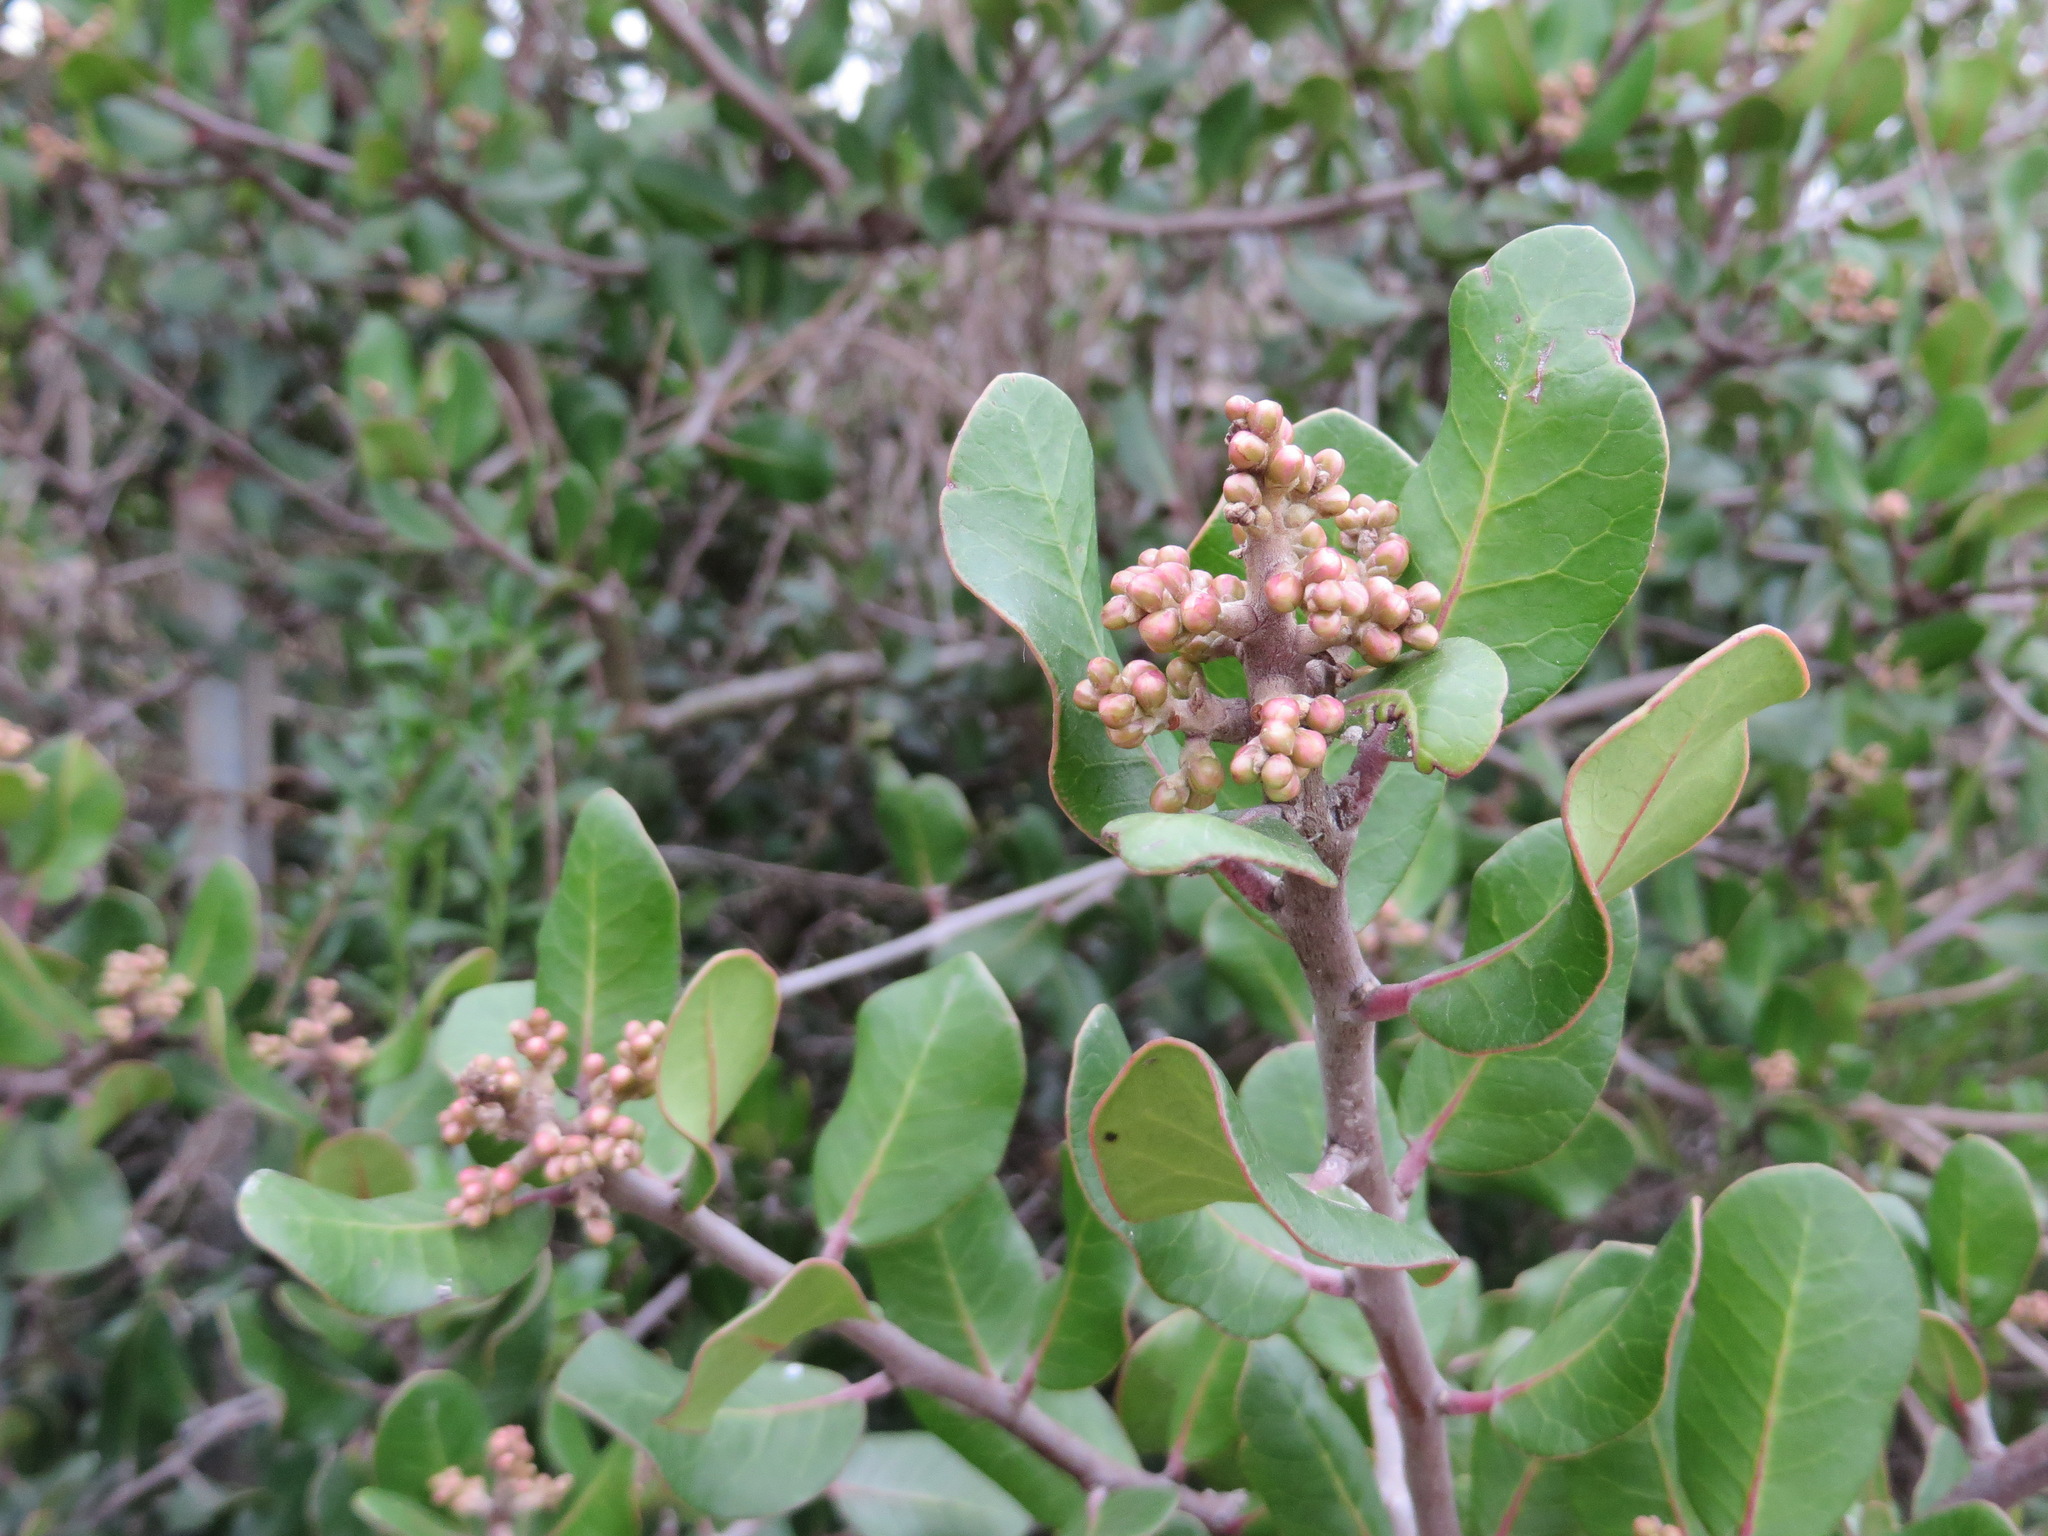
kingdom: Plantae
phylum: Tracheophyta
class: Magnoliopsida
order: Sapindales
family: Anacardiaceae
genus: Rhus
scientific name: Rhus integrifolia
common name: Lemonade sumac
